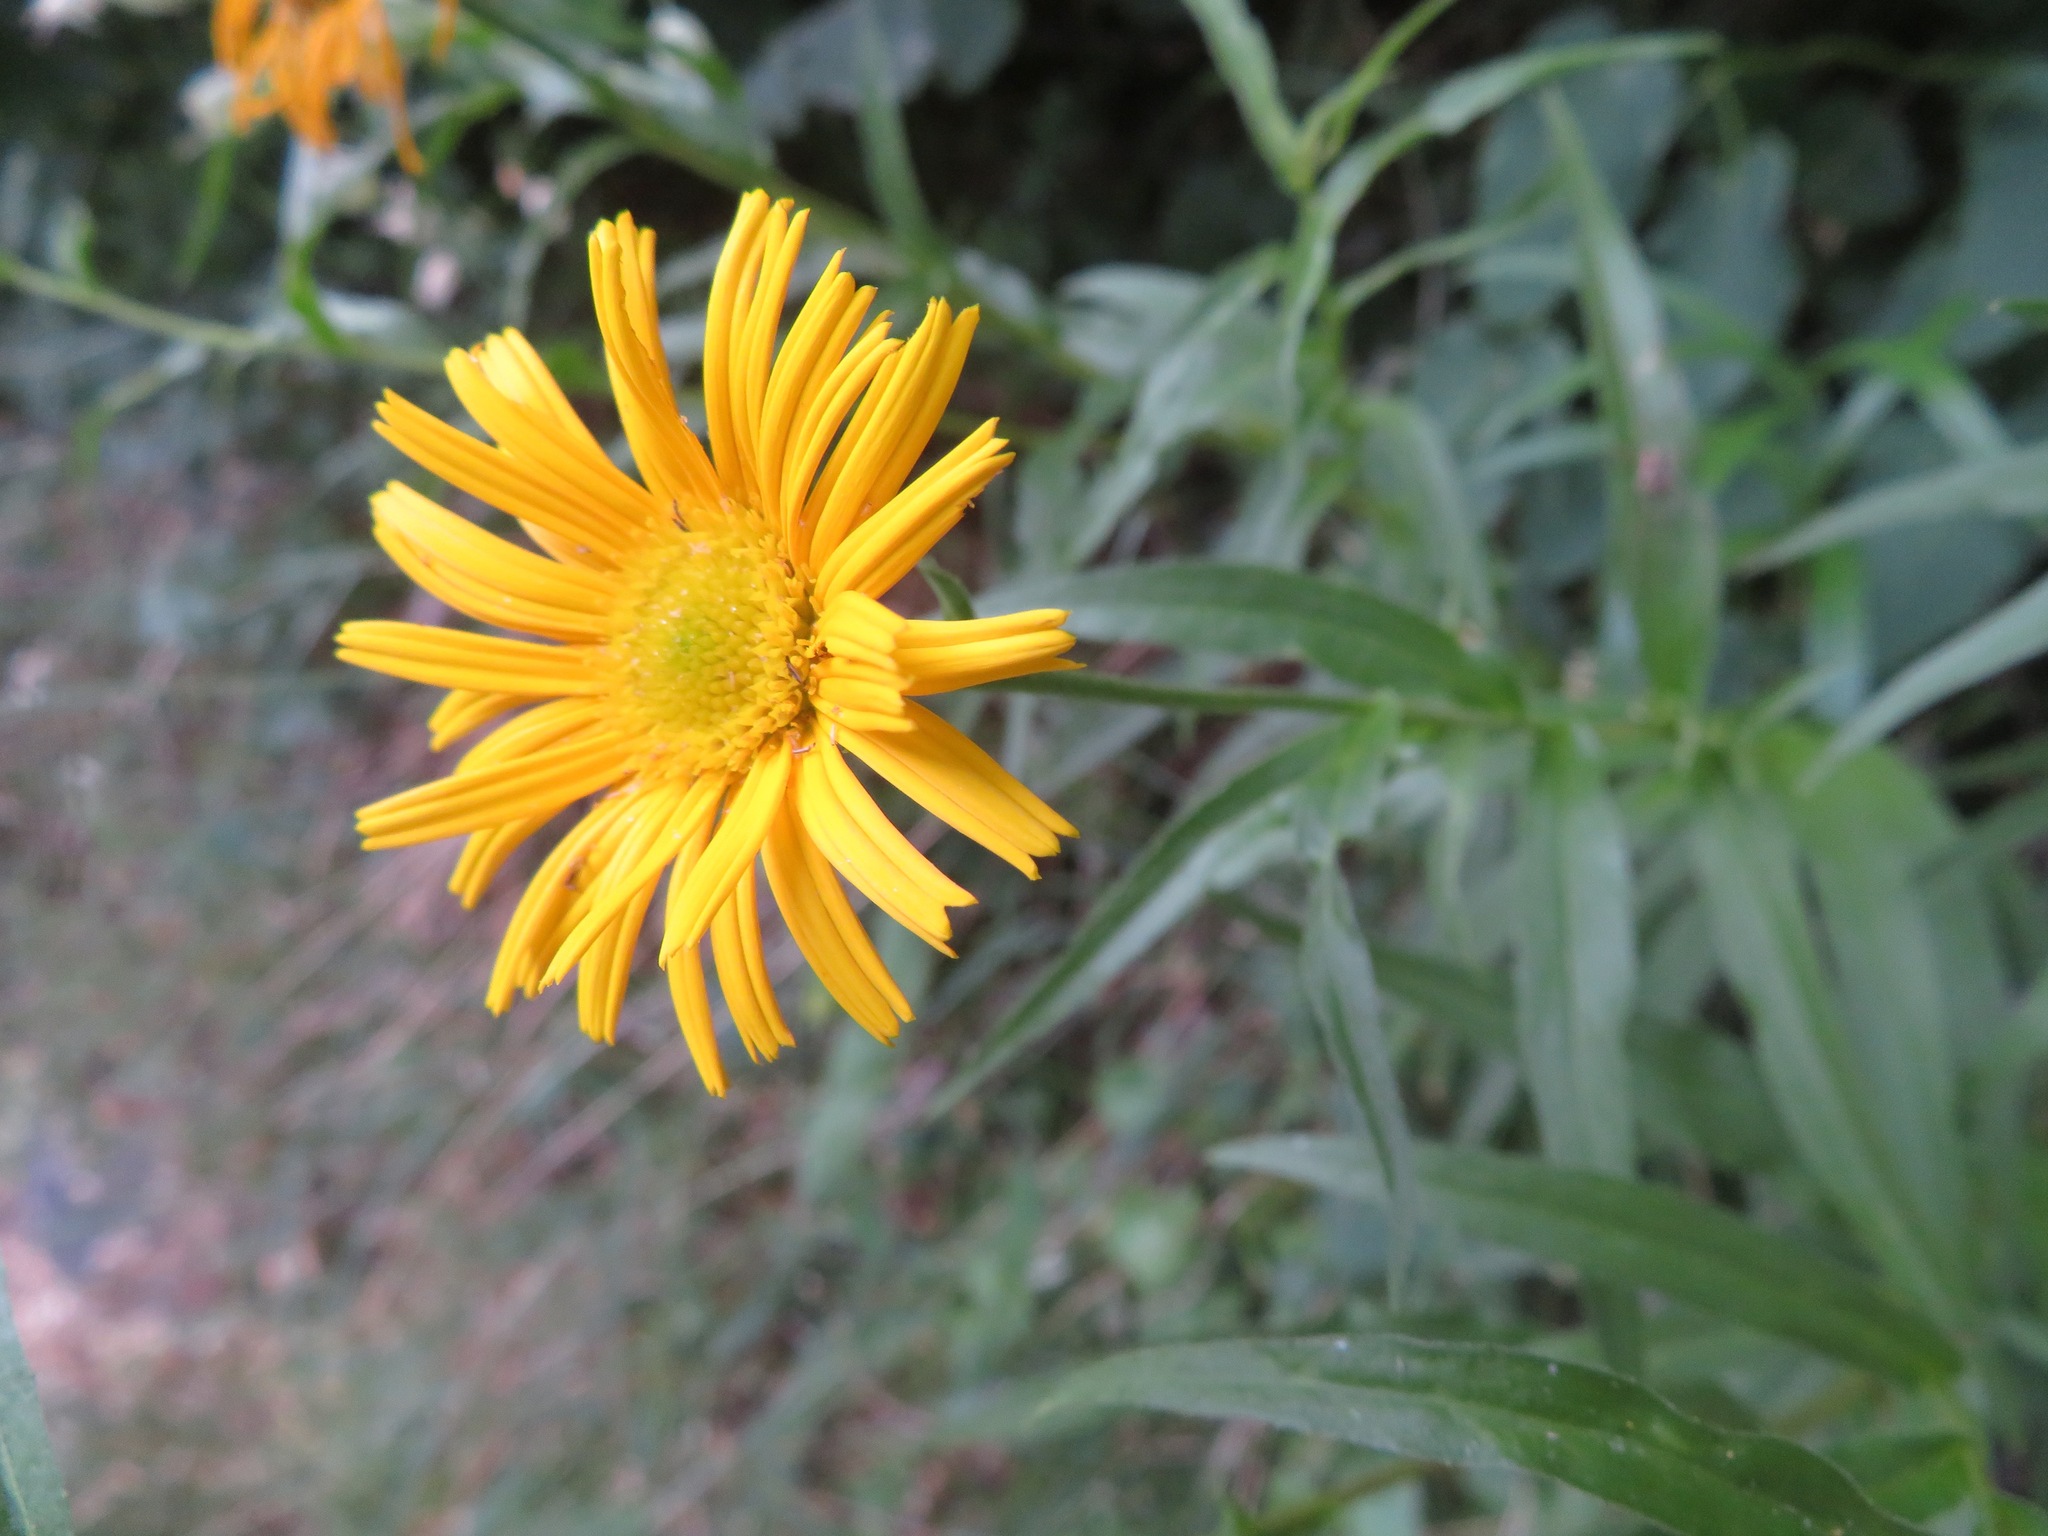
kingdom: Plantae
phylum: Tracheophyta
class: Magnoliopsida
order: Asterales
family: Asteraceae
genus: Buphthalmum
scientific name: Buphthalmum salicifolium
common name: Willow-leaved yellow-oxeye
